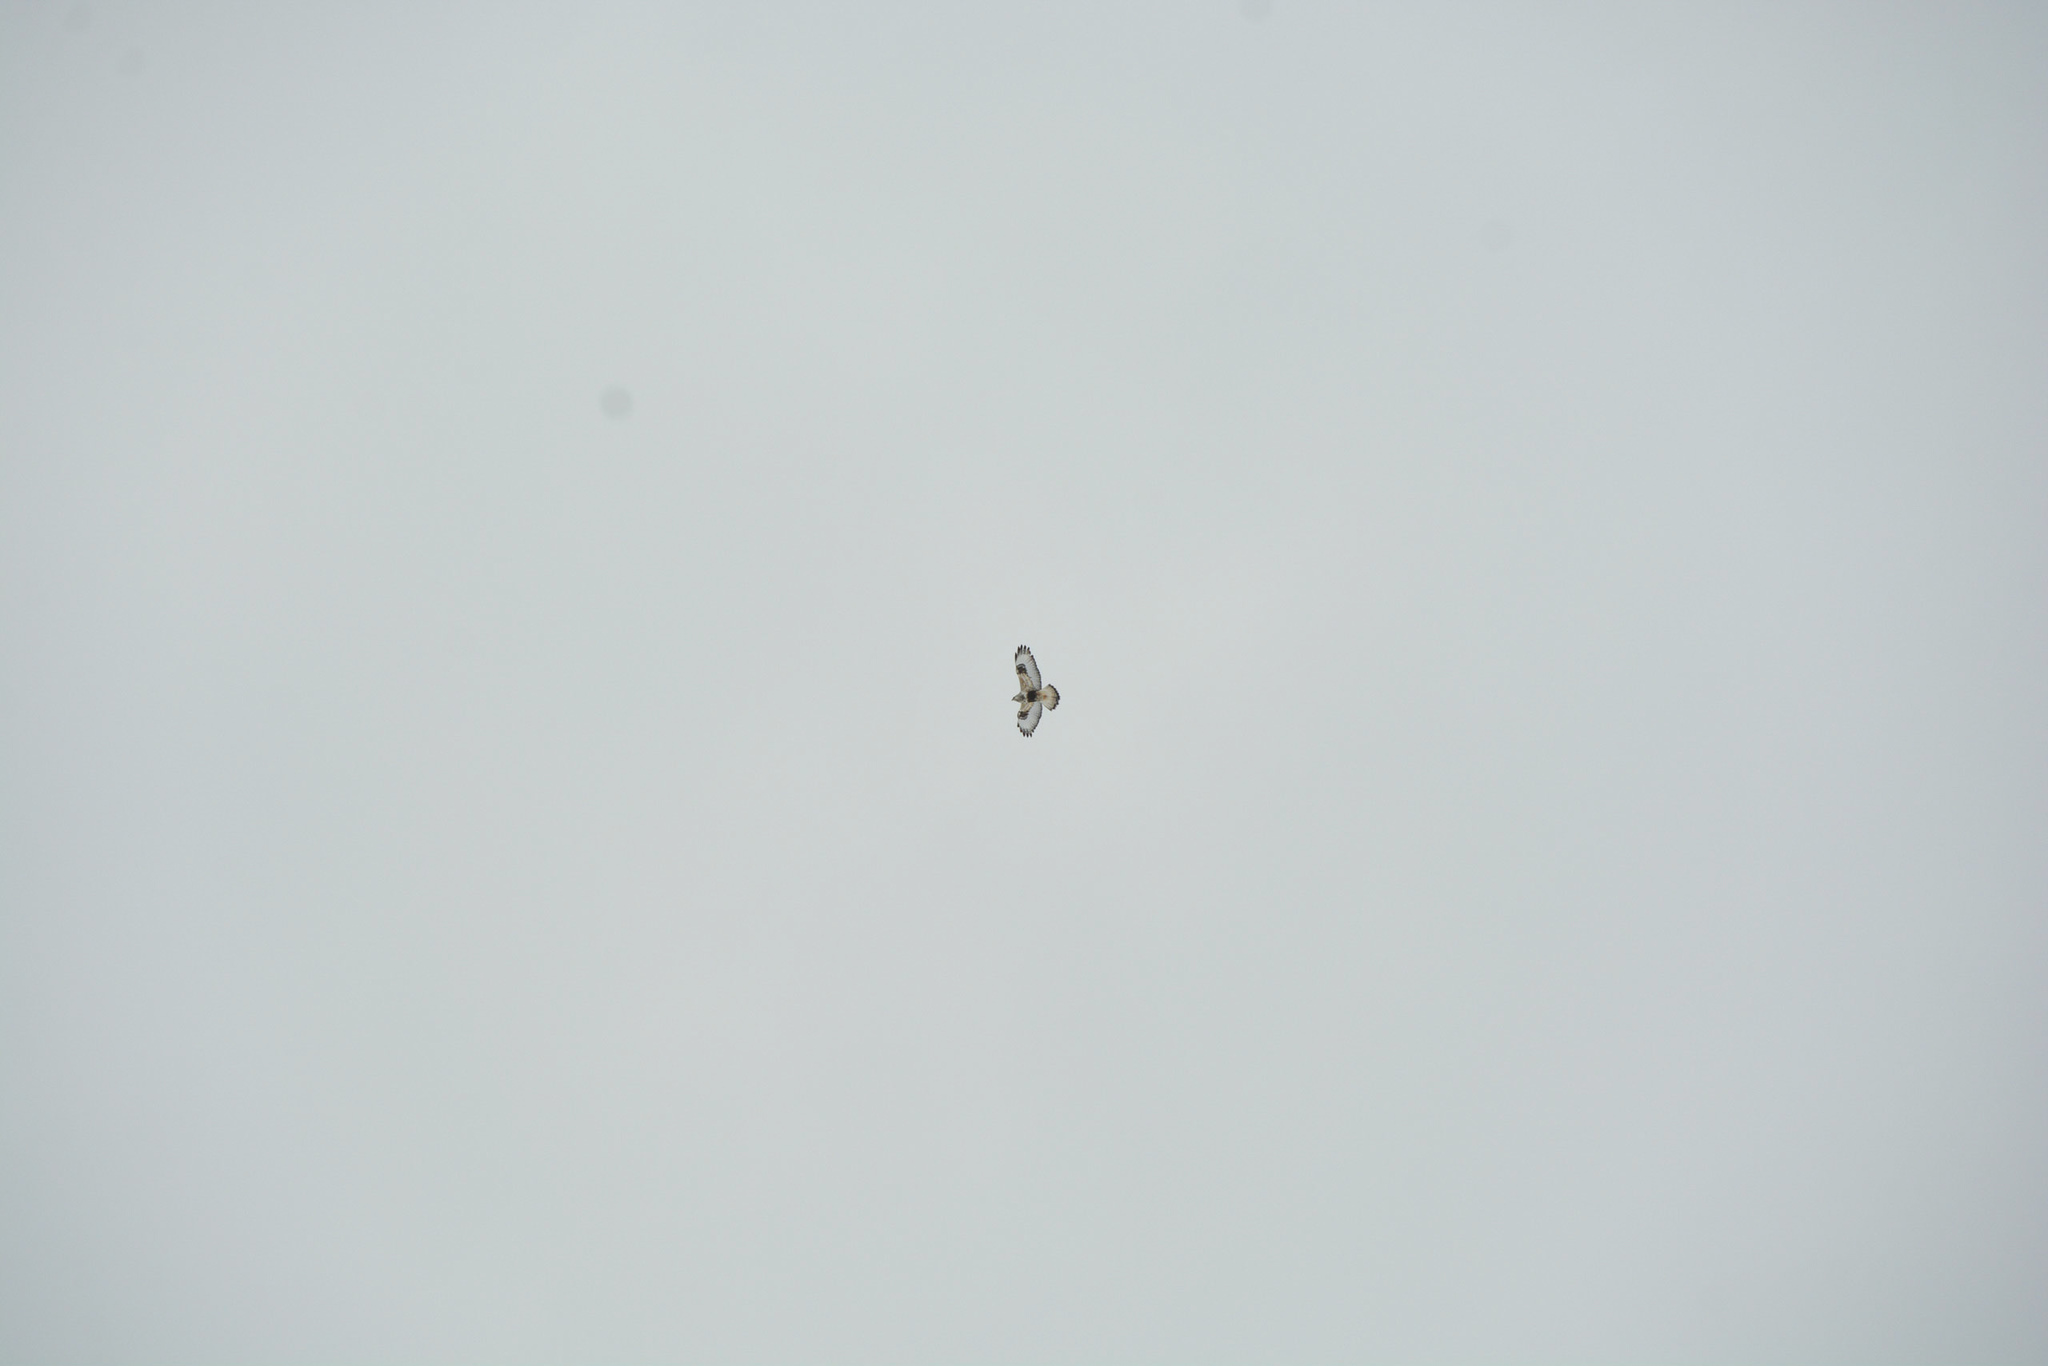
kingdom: Animalia
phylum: Chordata
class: Aves
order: Accipitriformes
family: Accipitridae
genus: Buteo
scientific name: Buteo lagopus
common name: Rough-legged buzzard
